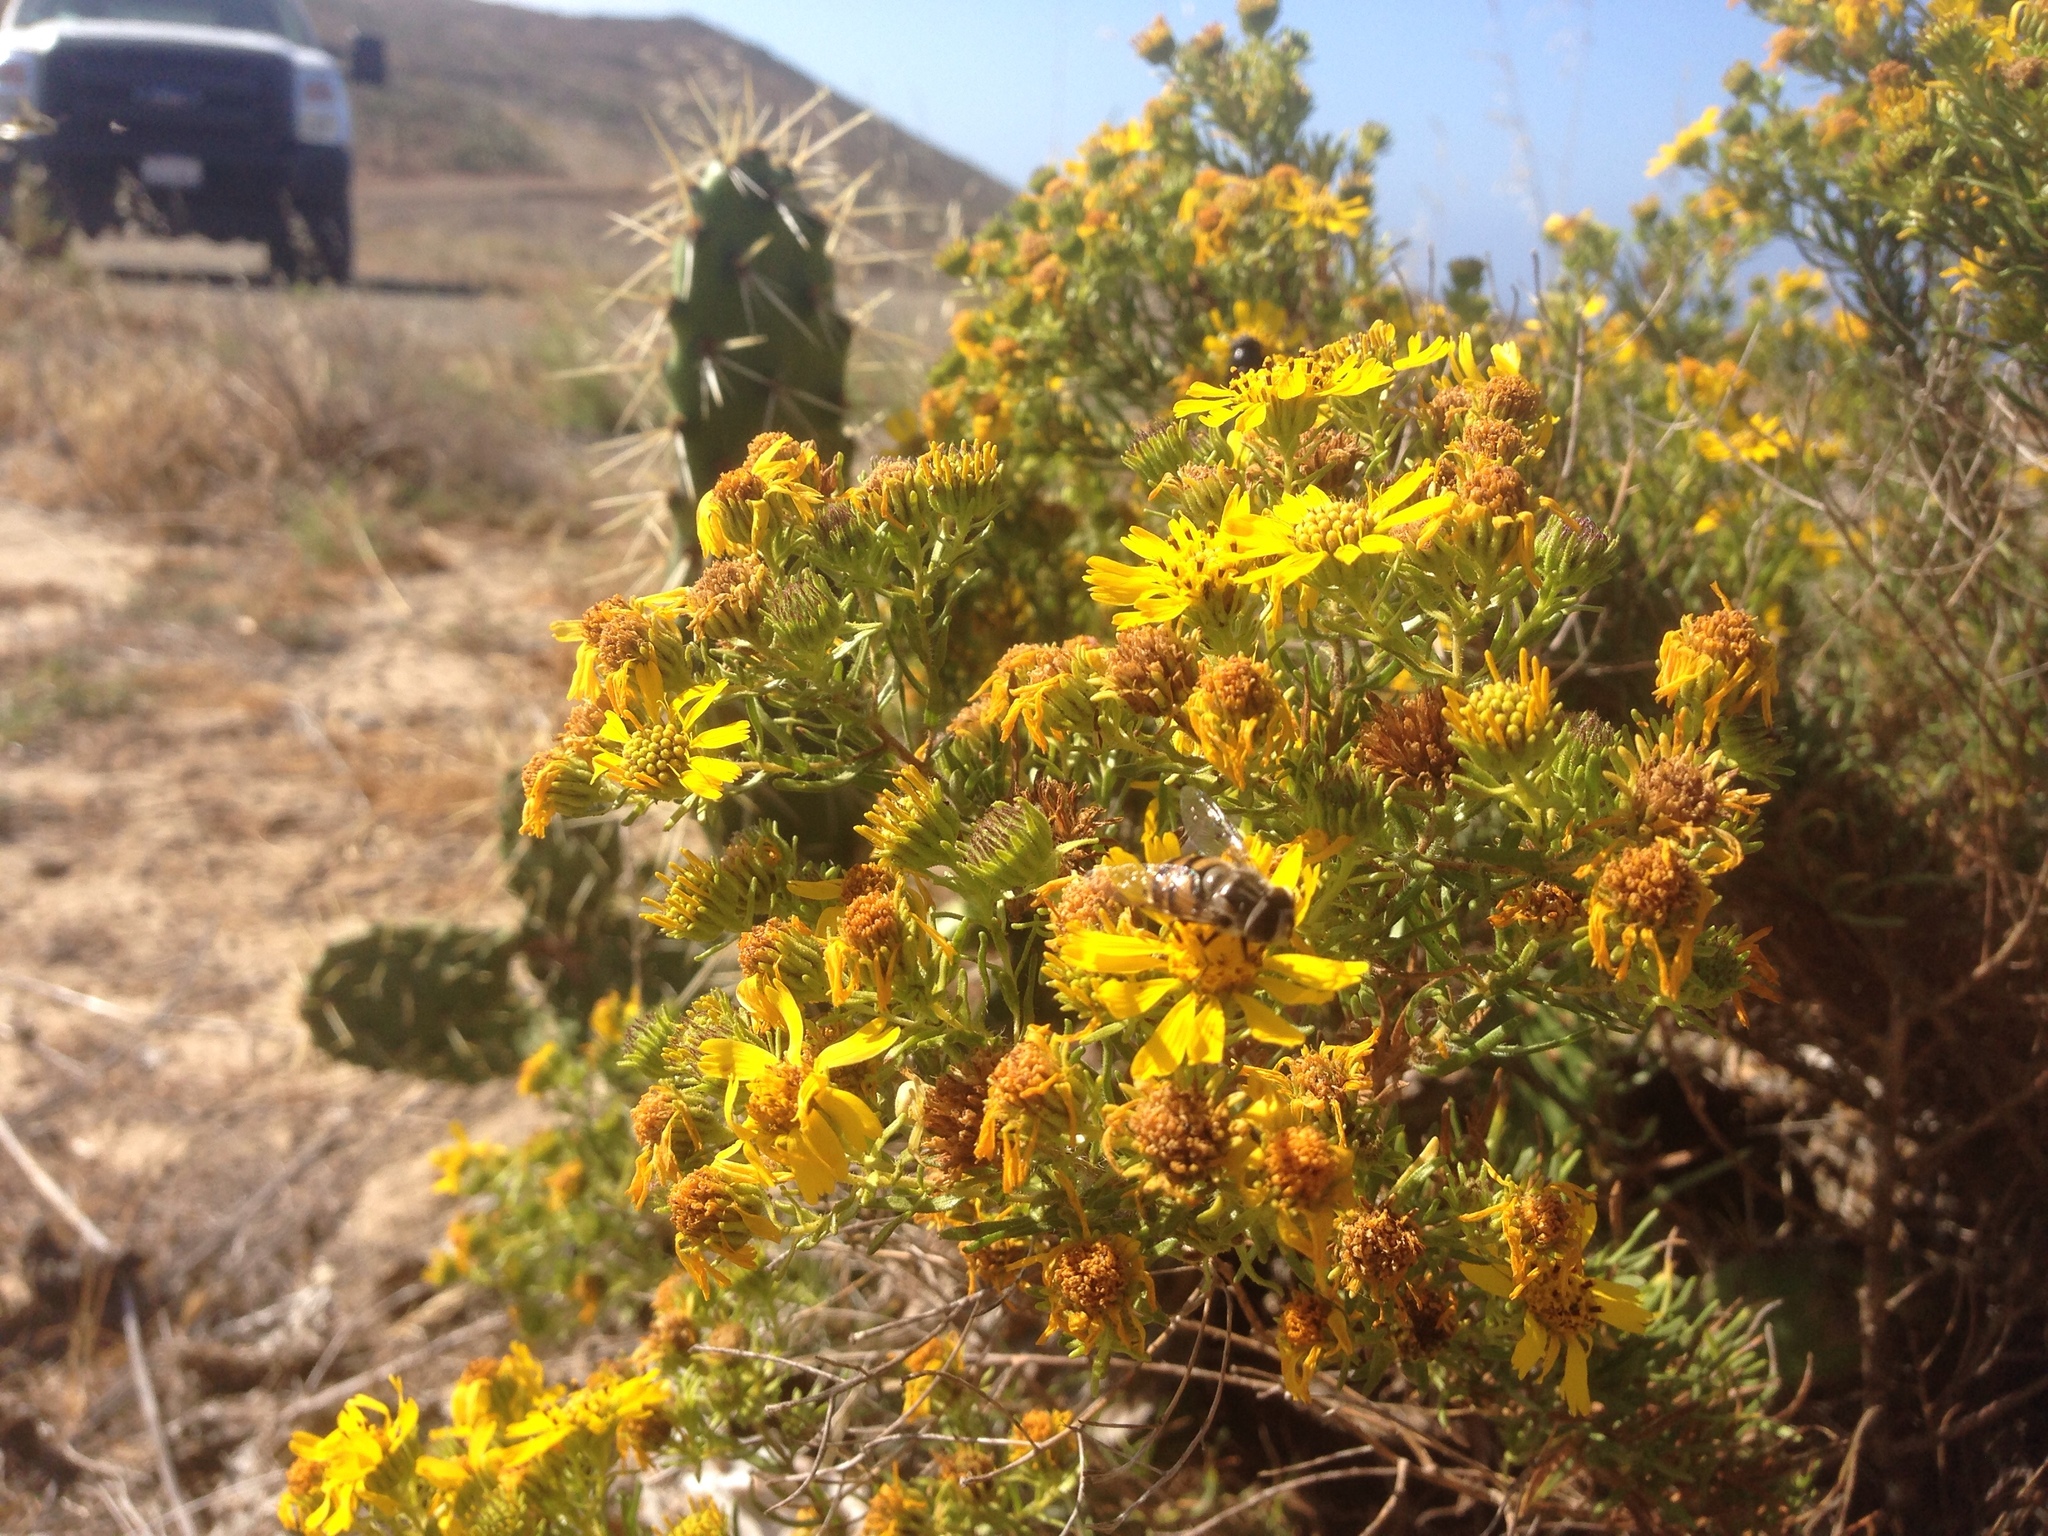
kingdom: Animalia
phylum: Arthropoda
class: Insecta
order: Diptera
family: Syrphidae
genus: Copestylum
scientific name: Copestylum avidum
